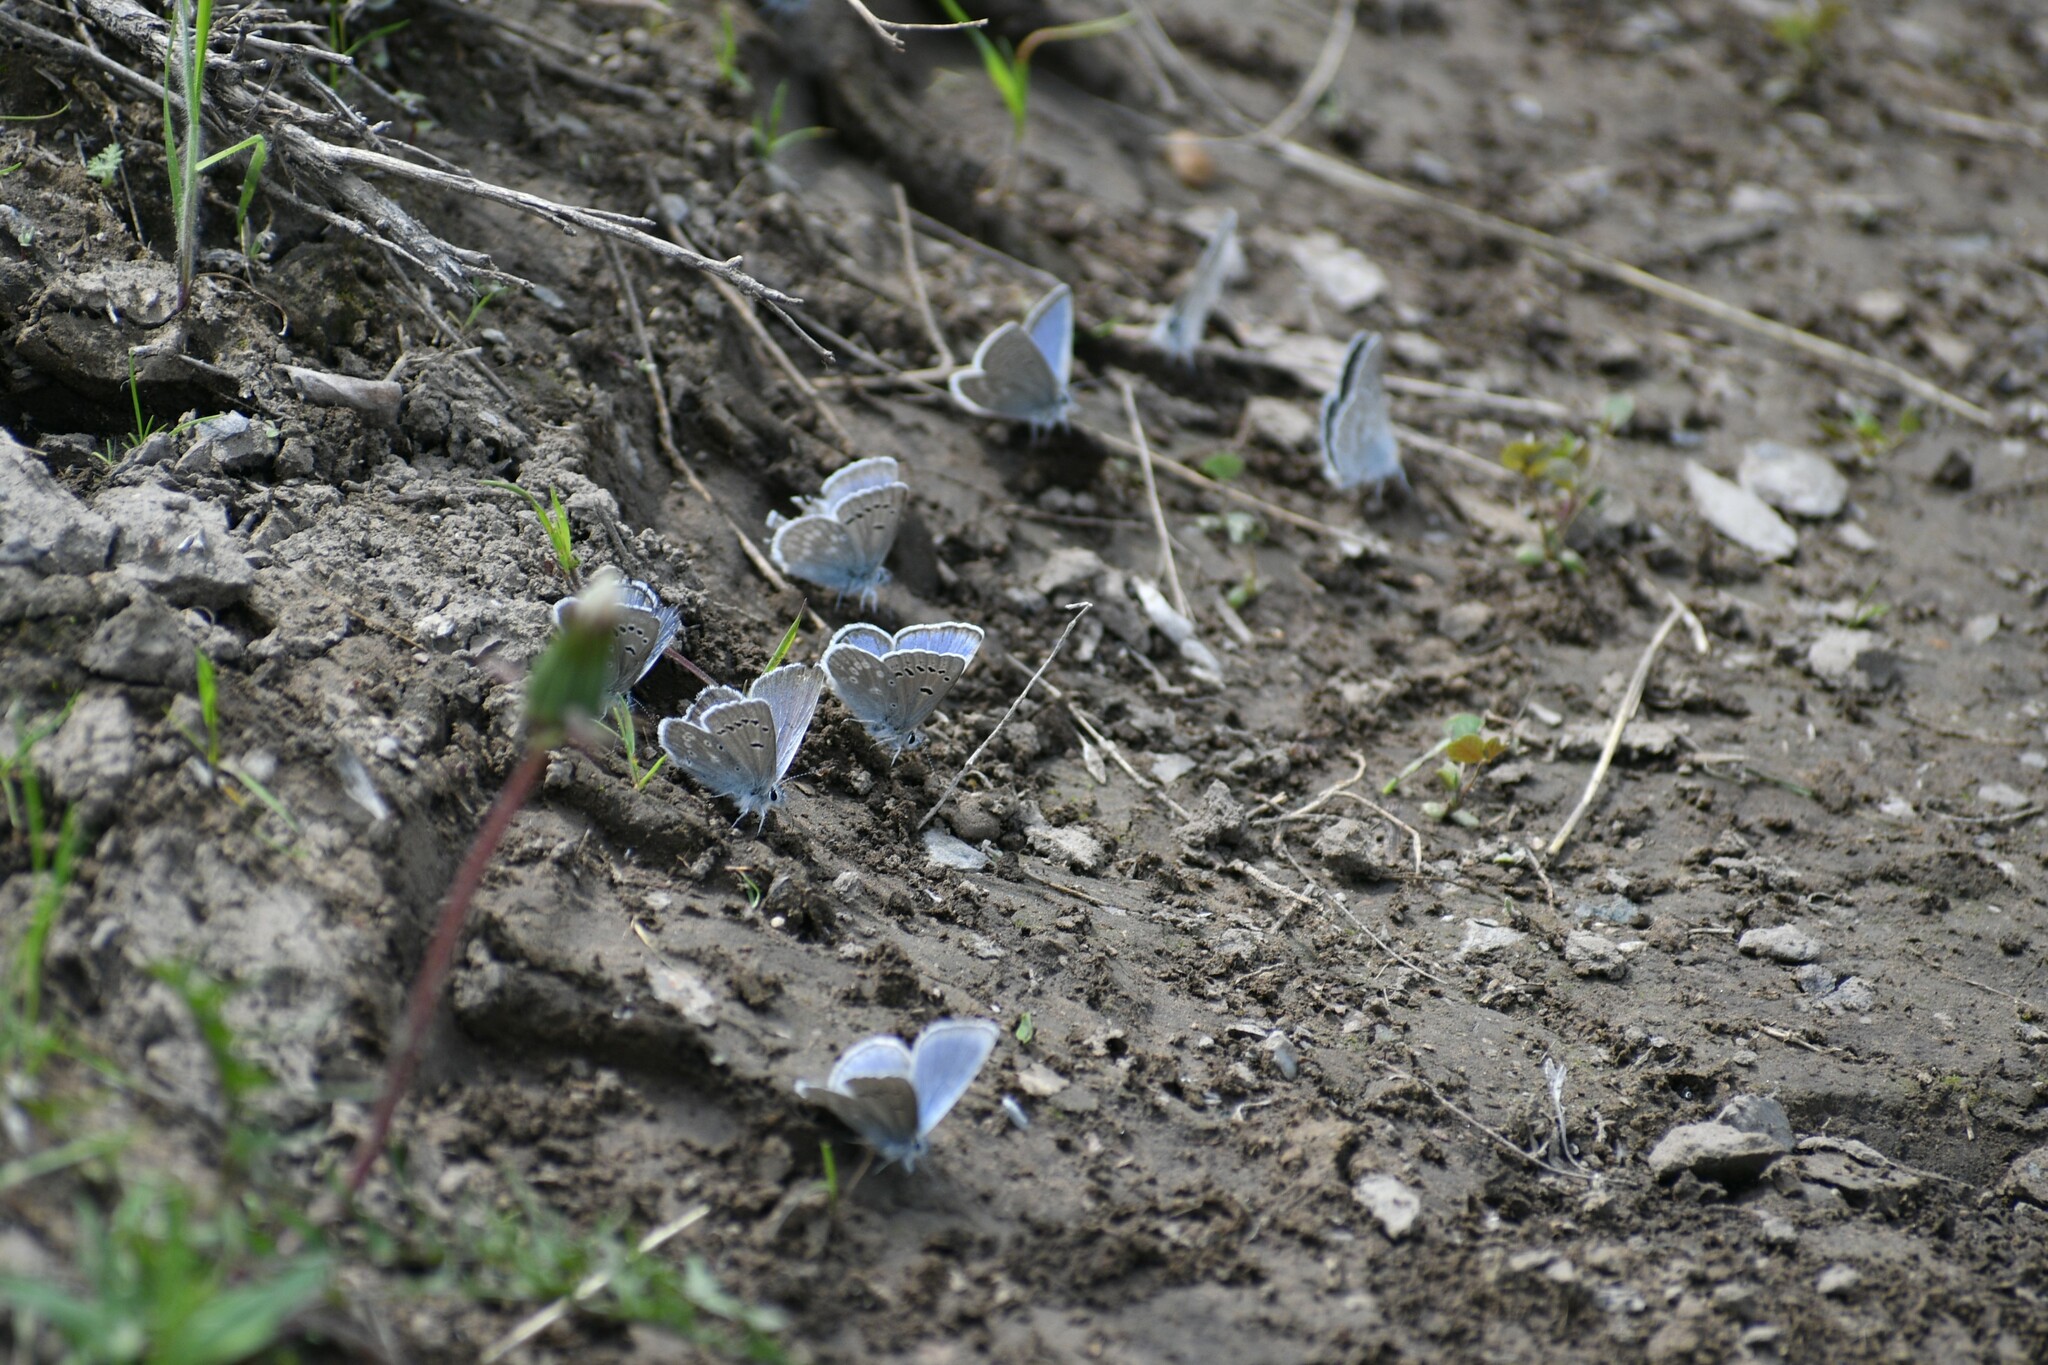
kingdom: Animalia
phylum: Arthropoda
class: Insecta
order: Lepidoptera
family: Lycaenidae
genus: Icaricia
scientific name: Icaricia icarioides
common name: Boisduval's blue
